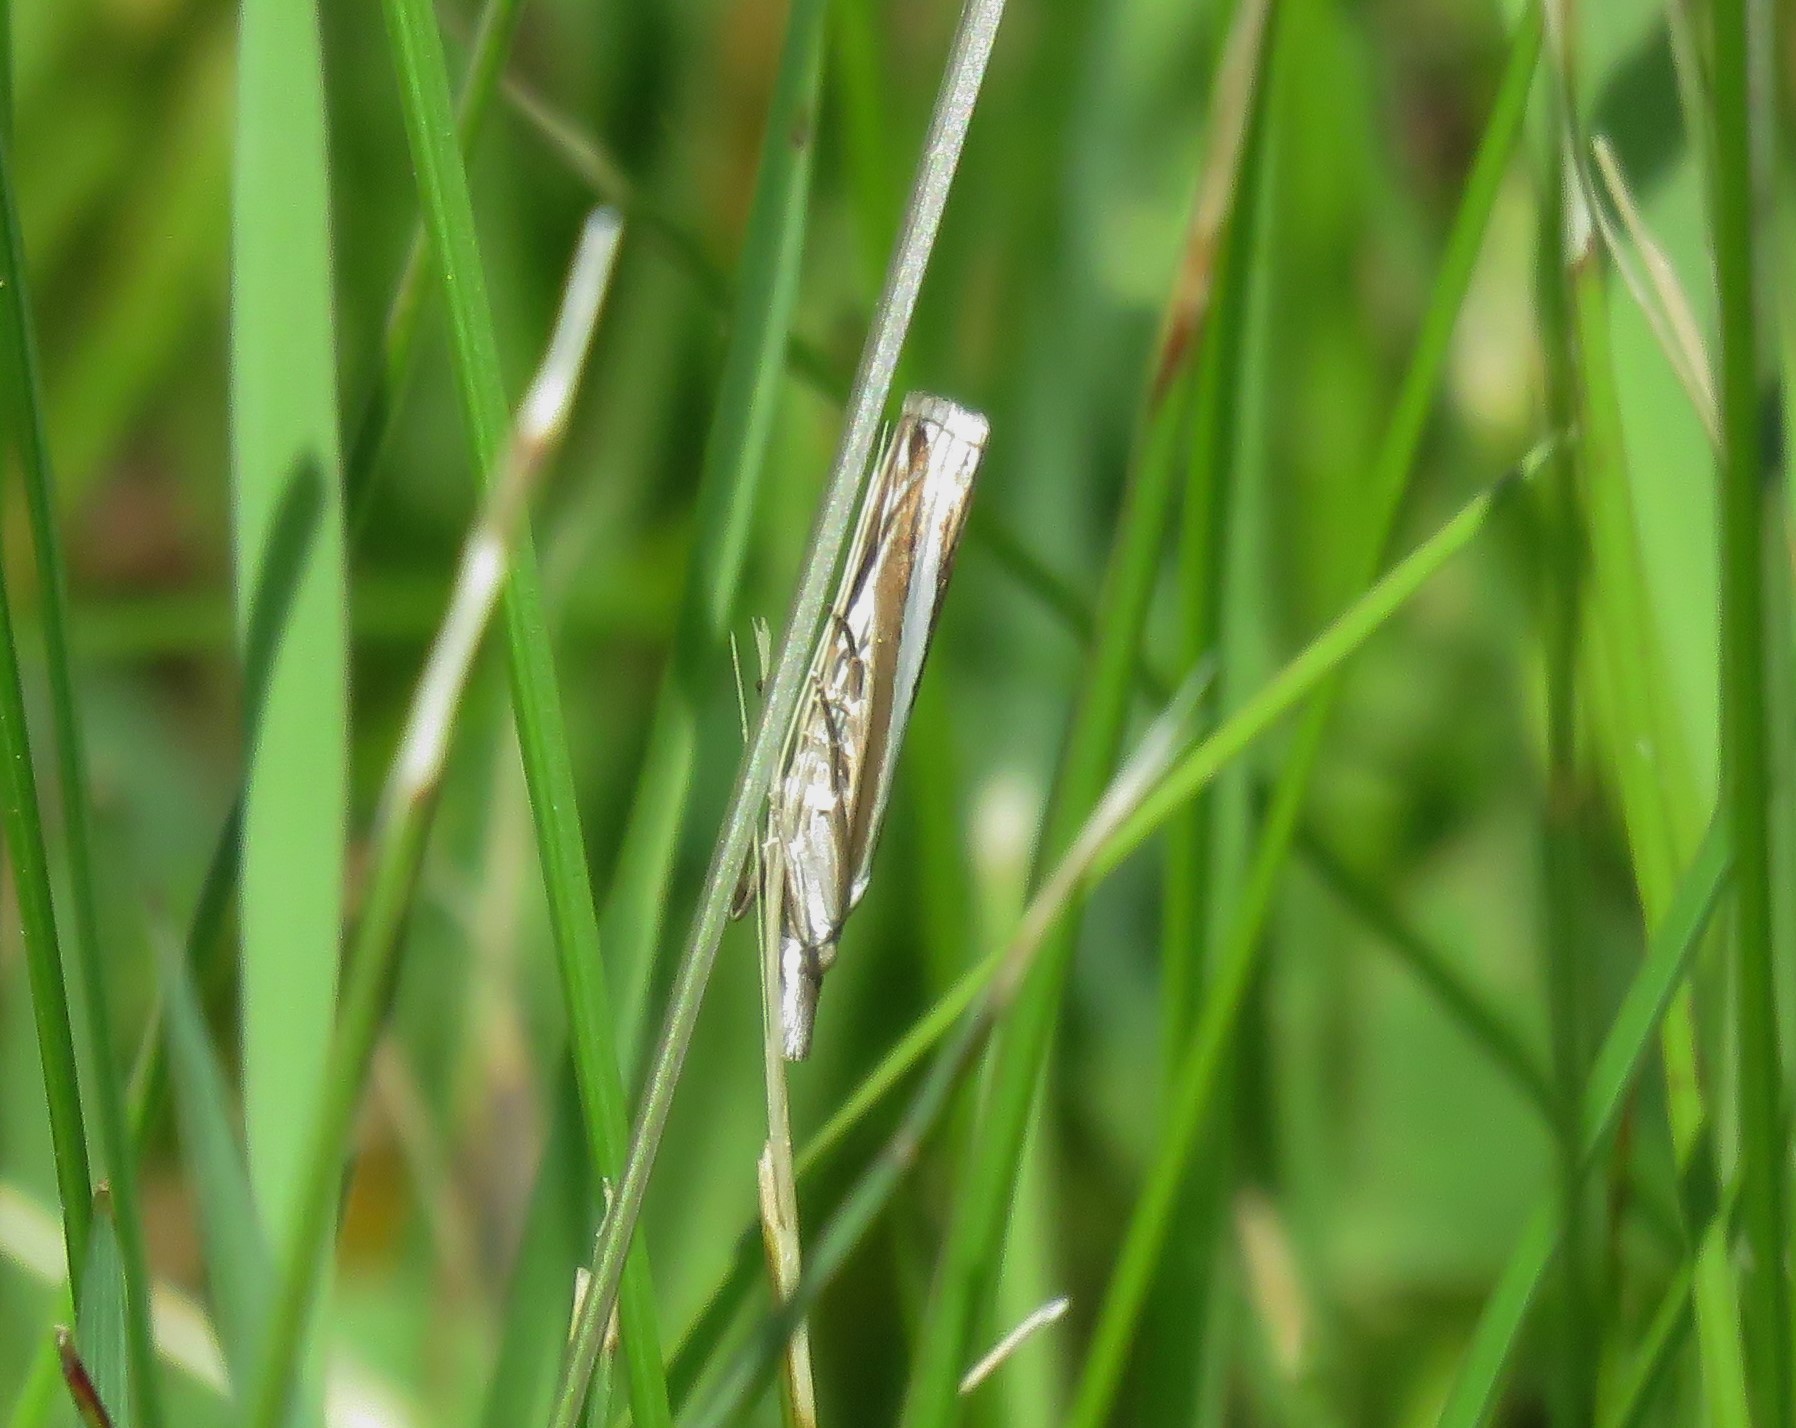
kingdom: Animalia
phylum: Arthropoda
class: Insecta
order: Lepidoptera
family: Crambidae
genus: Crambus
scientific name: Crambus unistriatellus
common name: Wide-stripe grass-veneer moth
